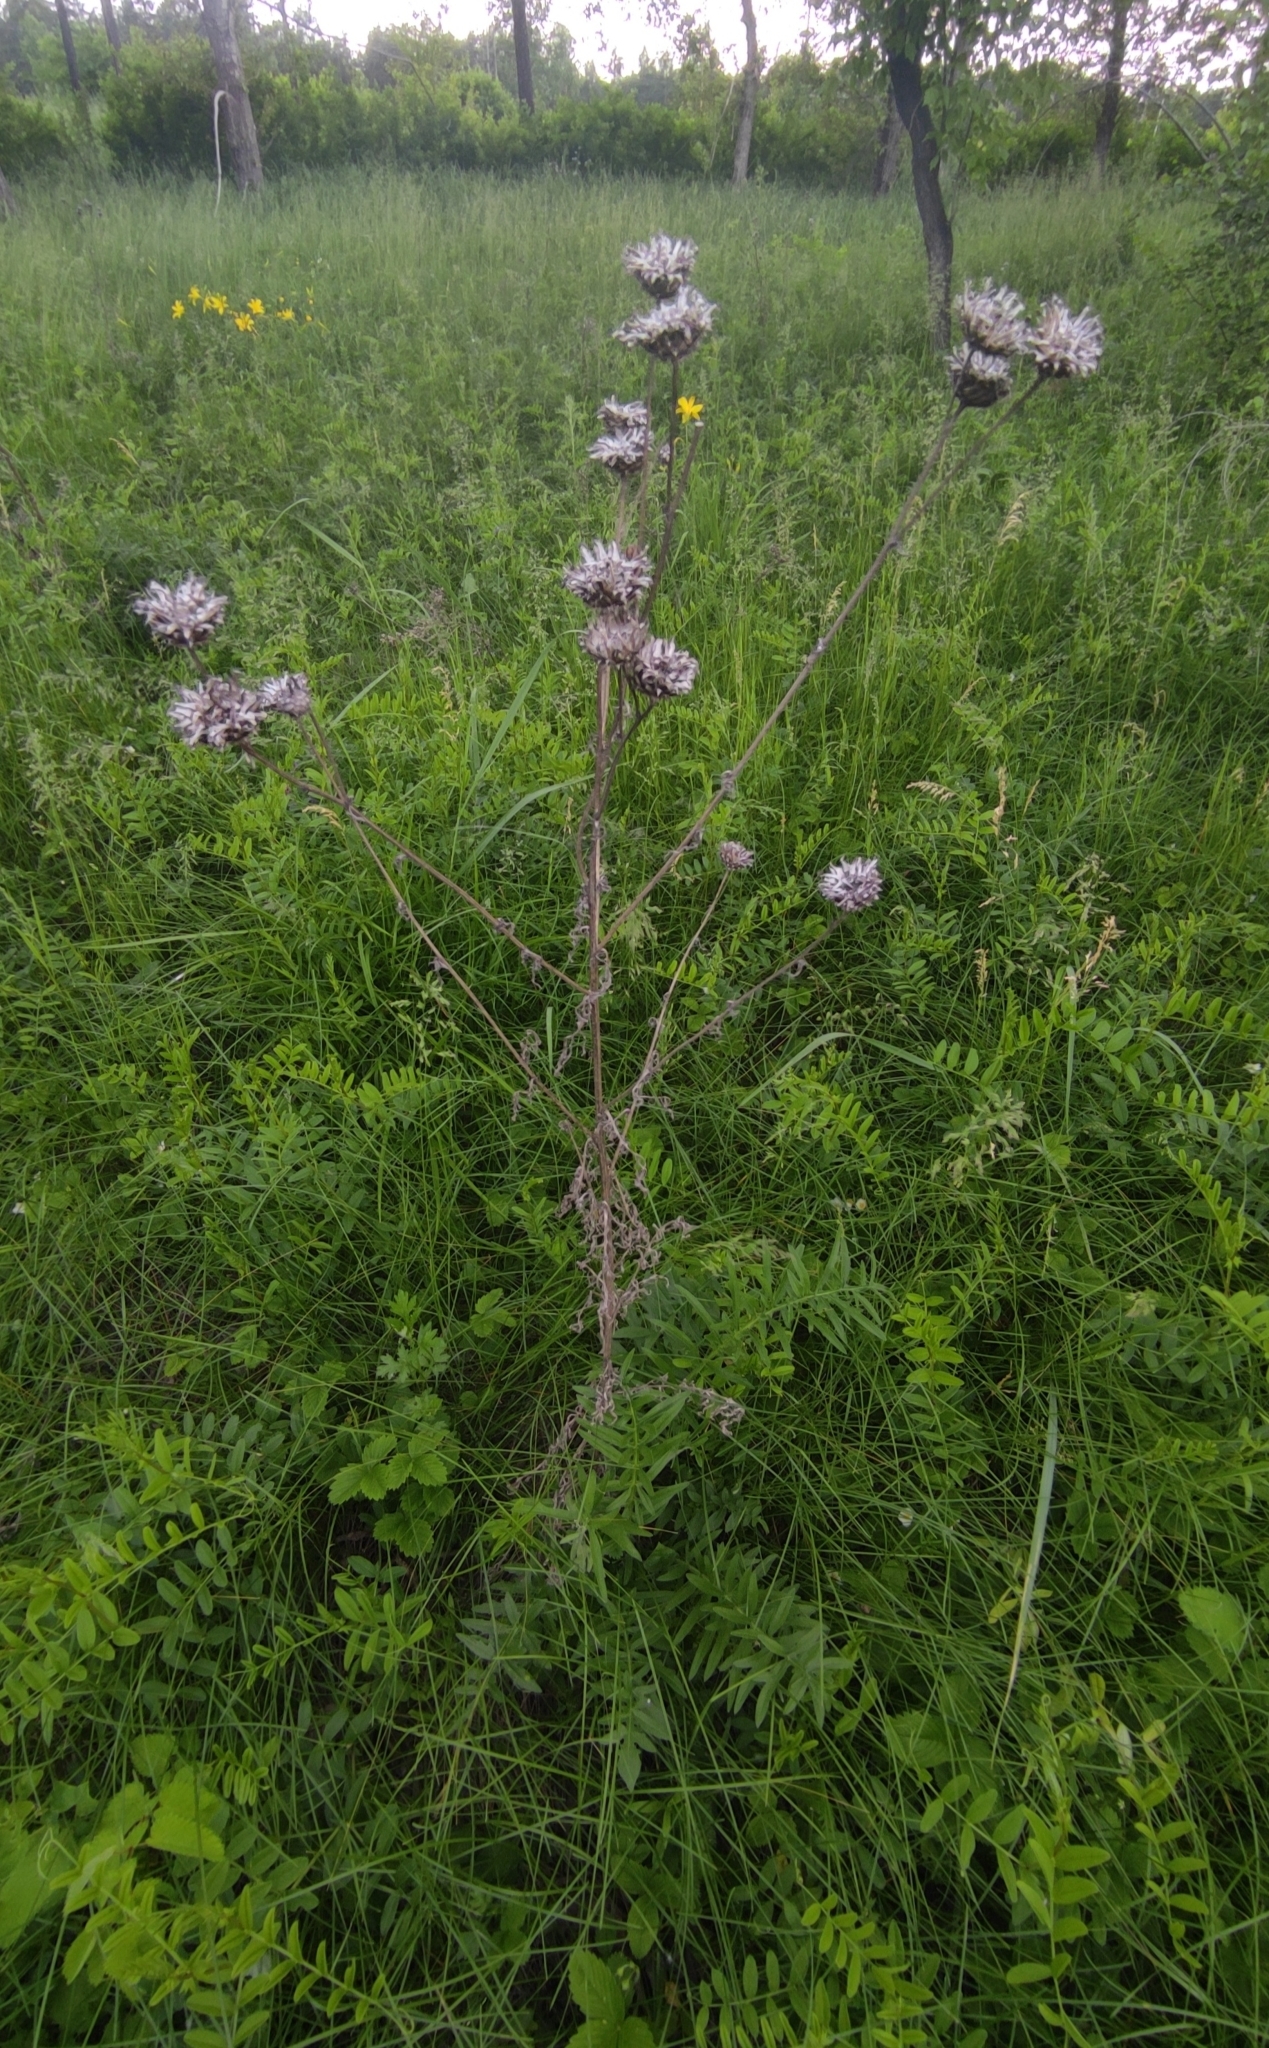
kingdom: Plantae
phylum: Tracheophyta
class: Magnoliopsida
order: Asterales
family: Asteraceae
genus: Centaurea
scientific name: Centaurea scabiosa
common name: Greater knapweed
